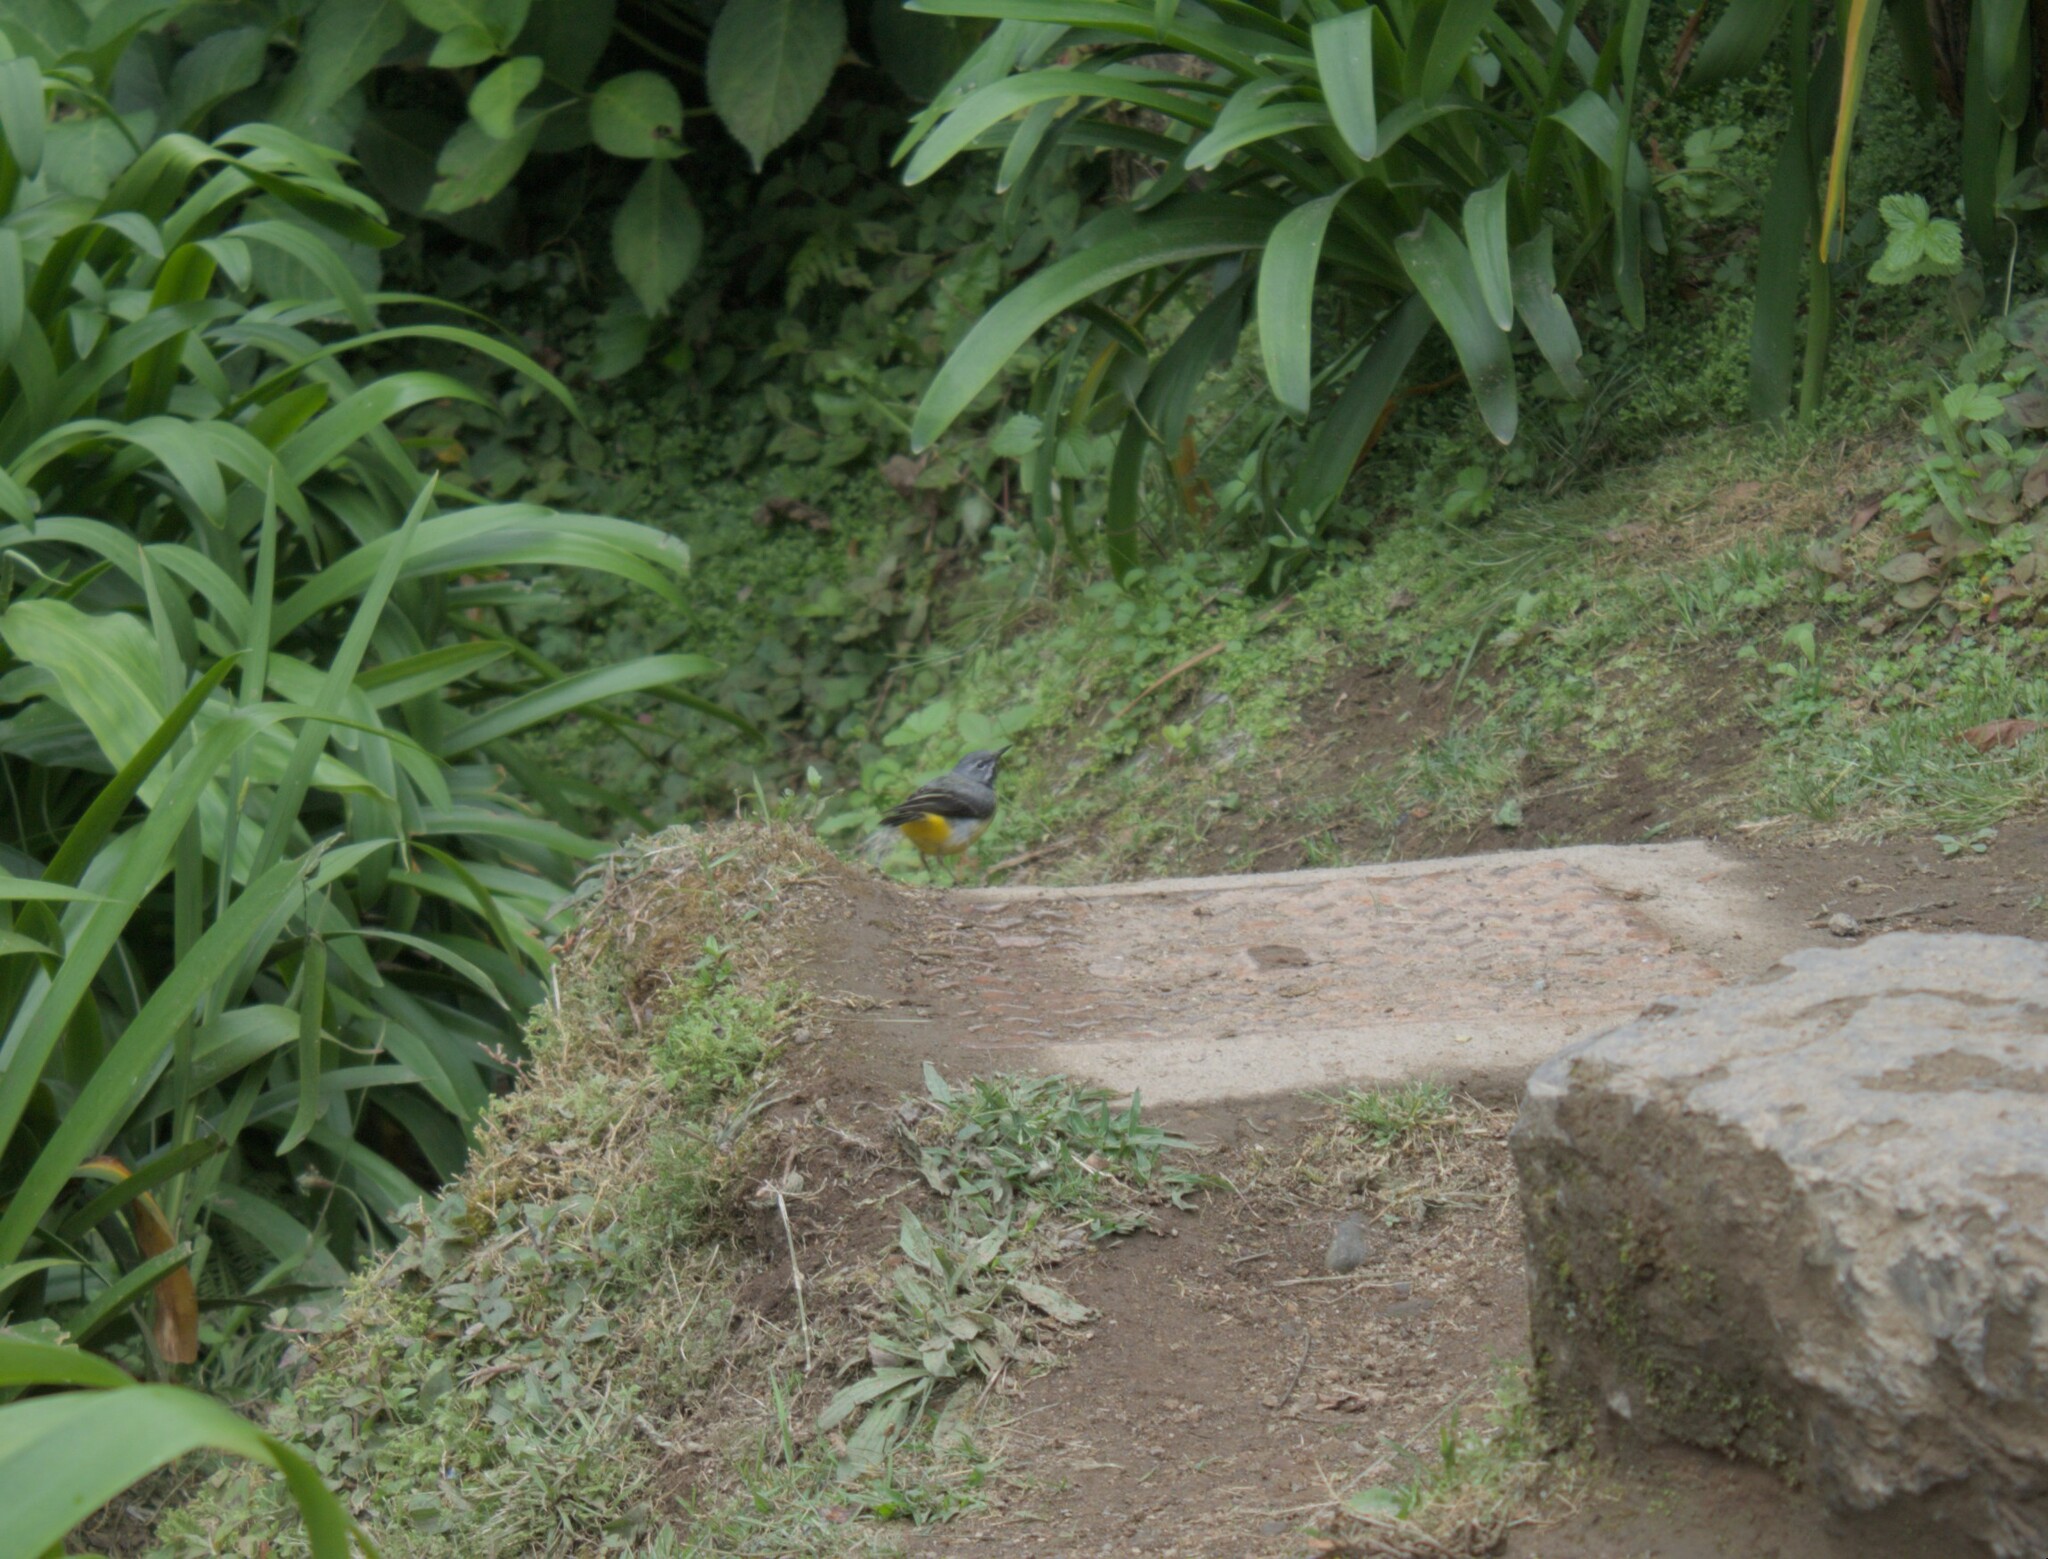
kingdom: Animalia
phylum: Chordata
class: Aves
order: Passeriformes
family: Motacillidae
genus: Motacilla
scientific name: Motacilla cinerea
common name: Grey wagtail
